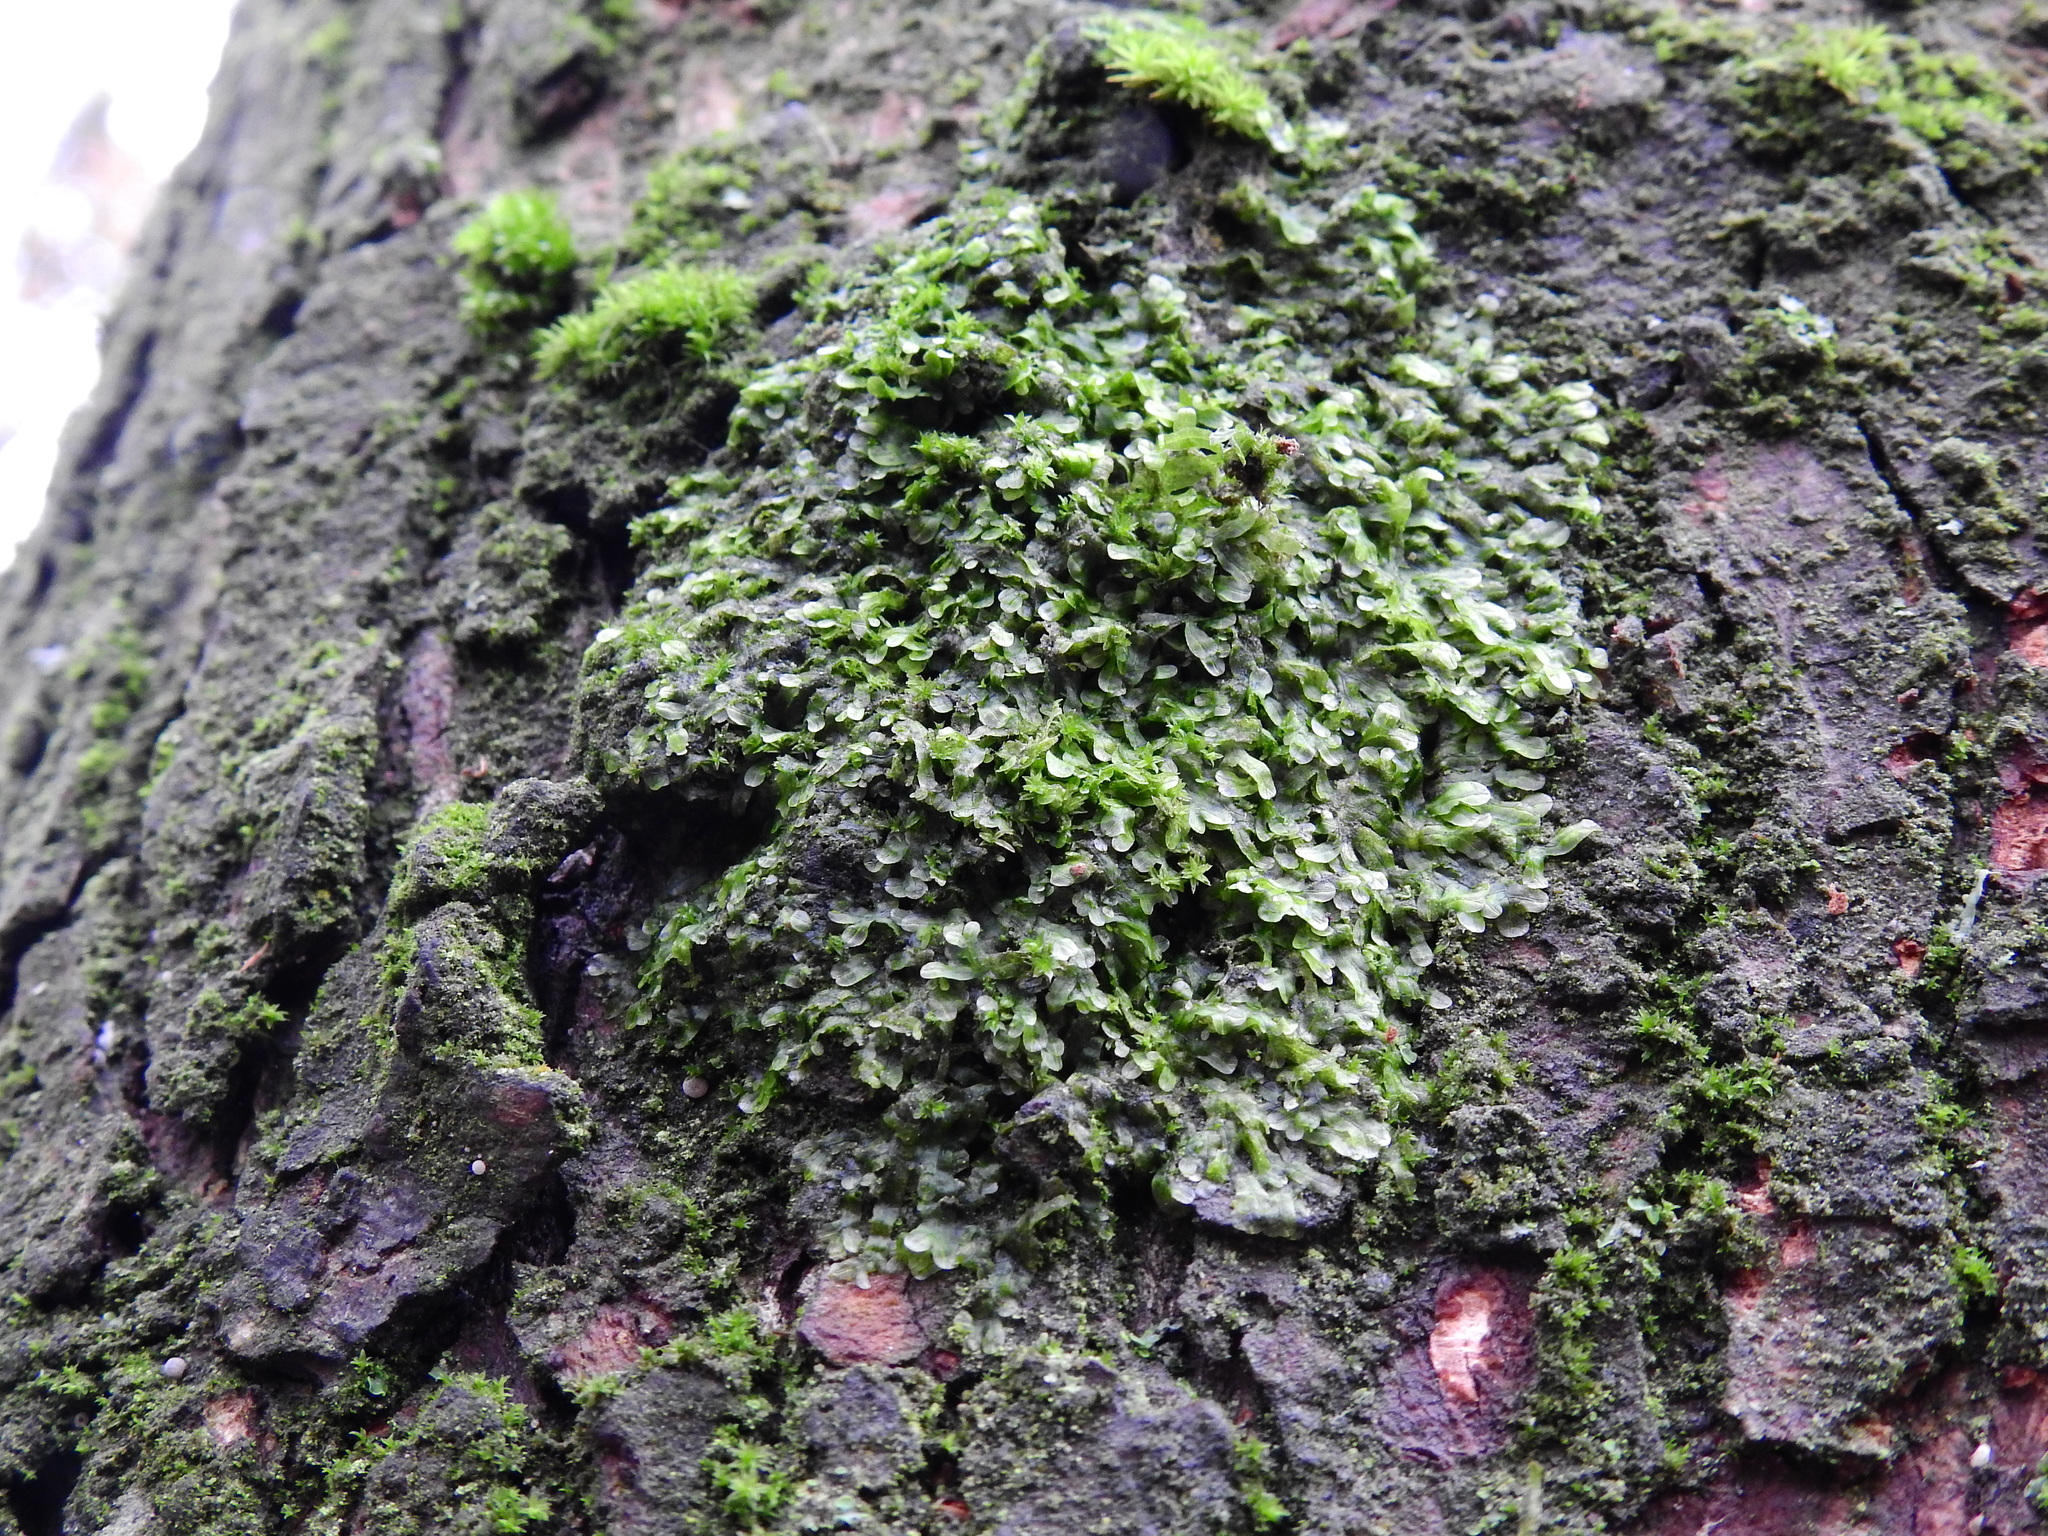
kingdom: Plantae
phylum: Marchantiophyta
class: Jungermanniopsida
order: Metzgeriales
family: Metzgeriaceae
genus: Metzgeria
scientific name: Metzgeria furcata
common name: Forked veilwort
